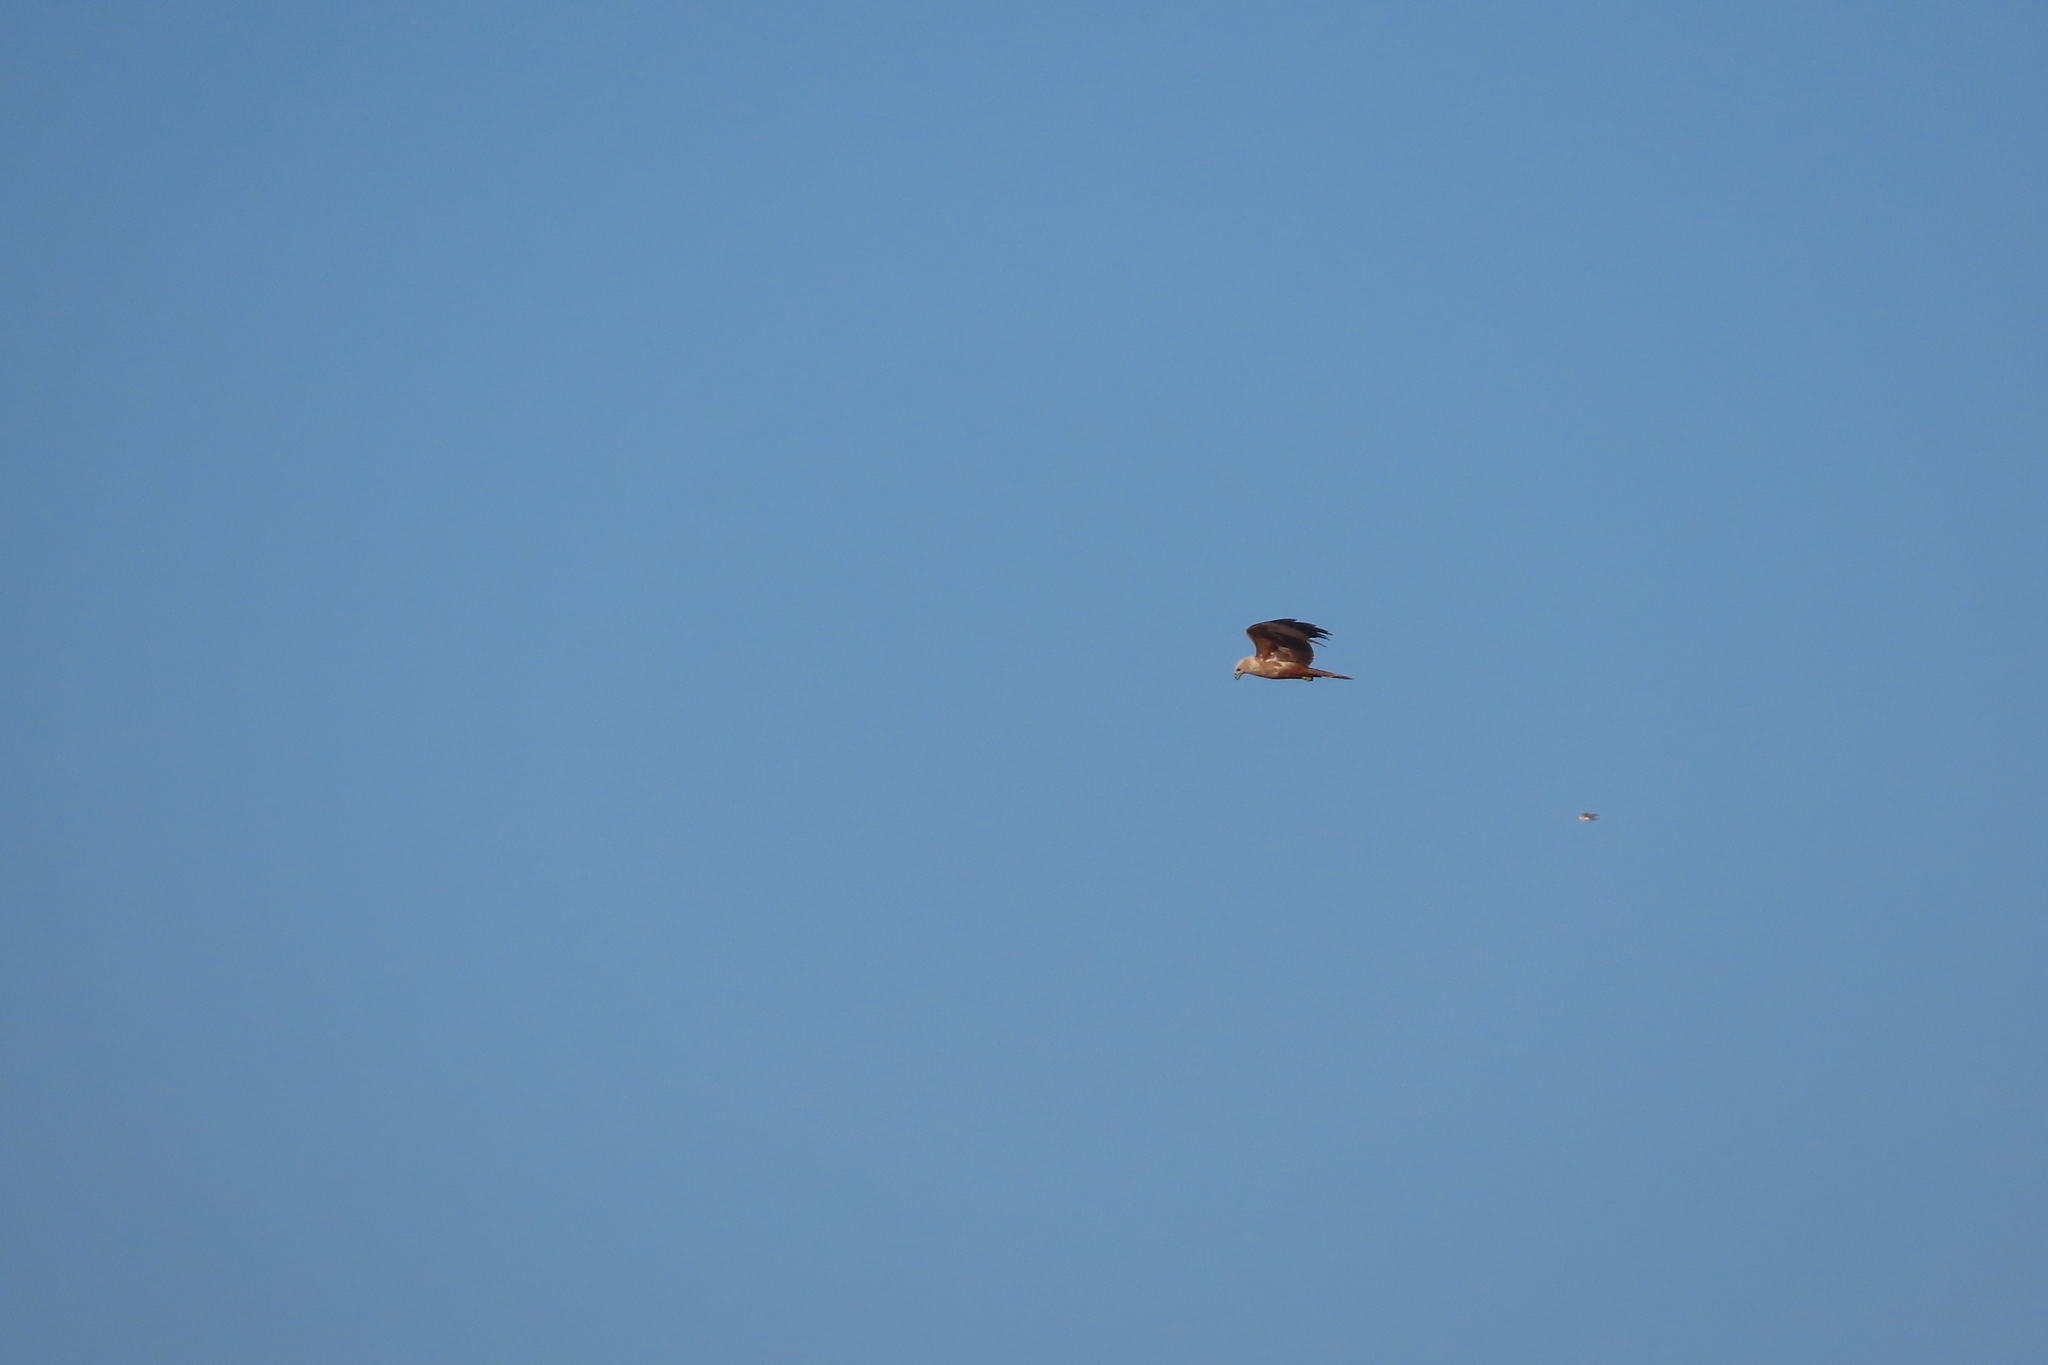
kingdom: Animalia
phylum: Chordata
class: Aves
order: Accipitriformes
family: Accipitridae
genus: Haliastur
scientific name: Haliastur indus
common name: Brahminy kite
